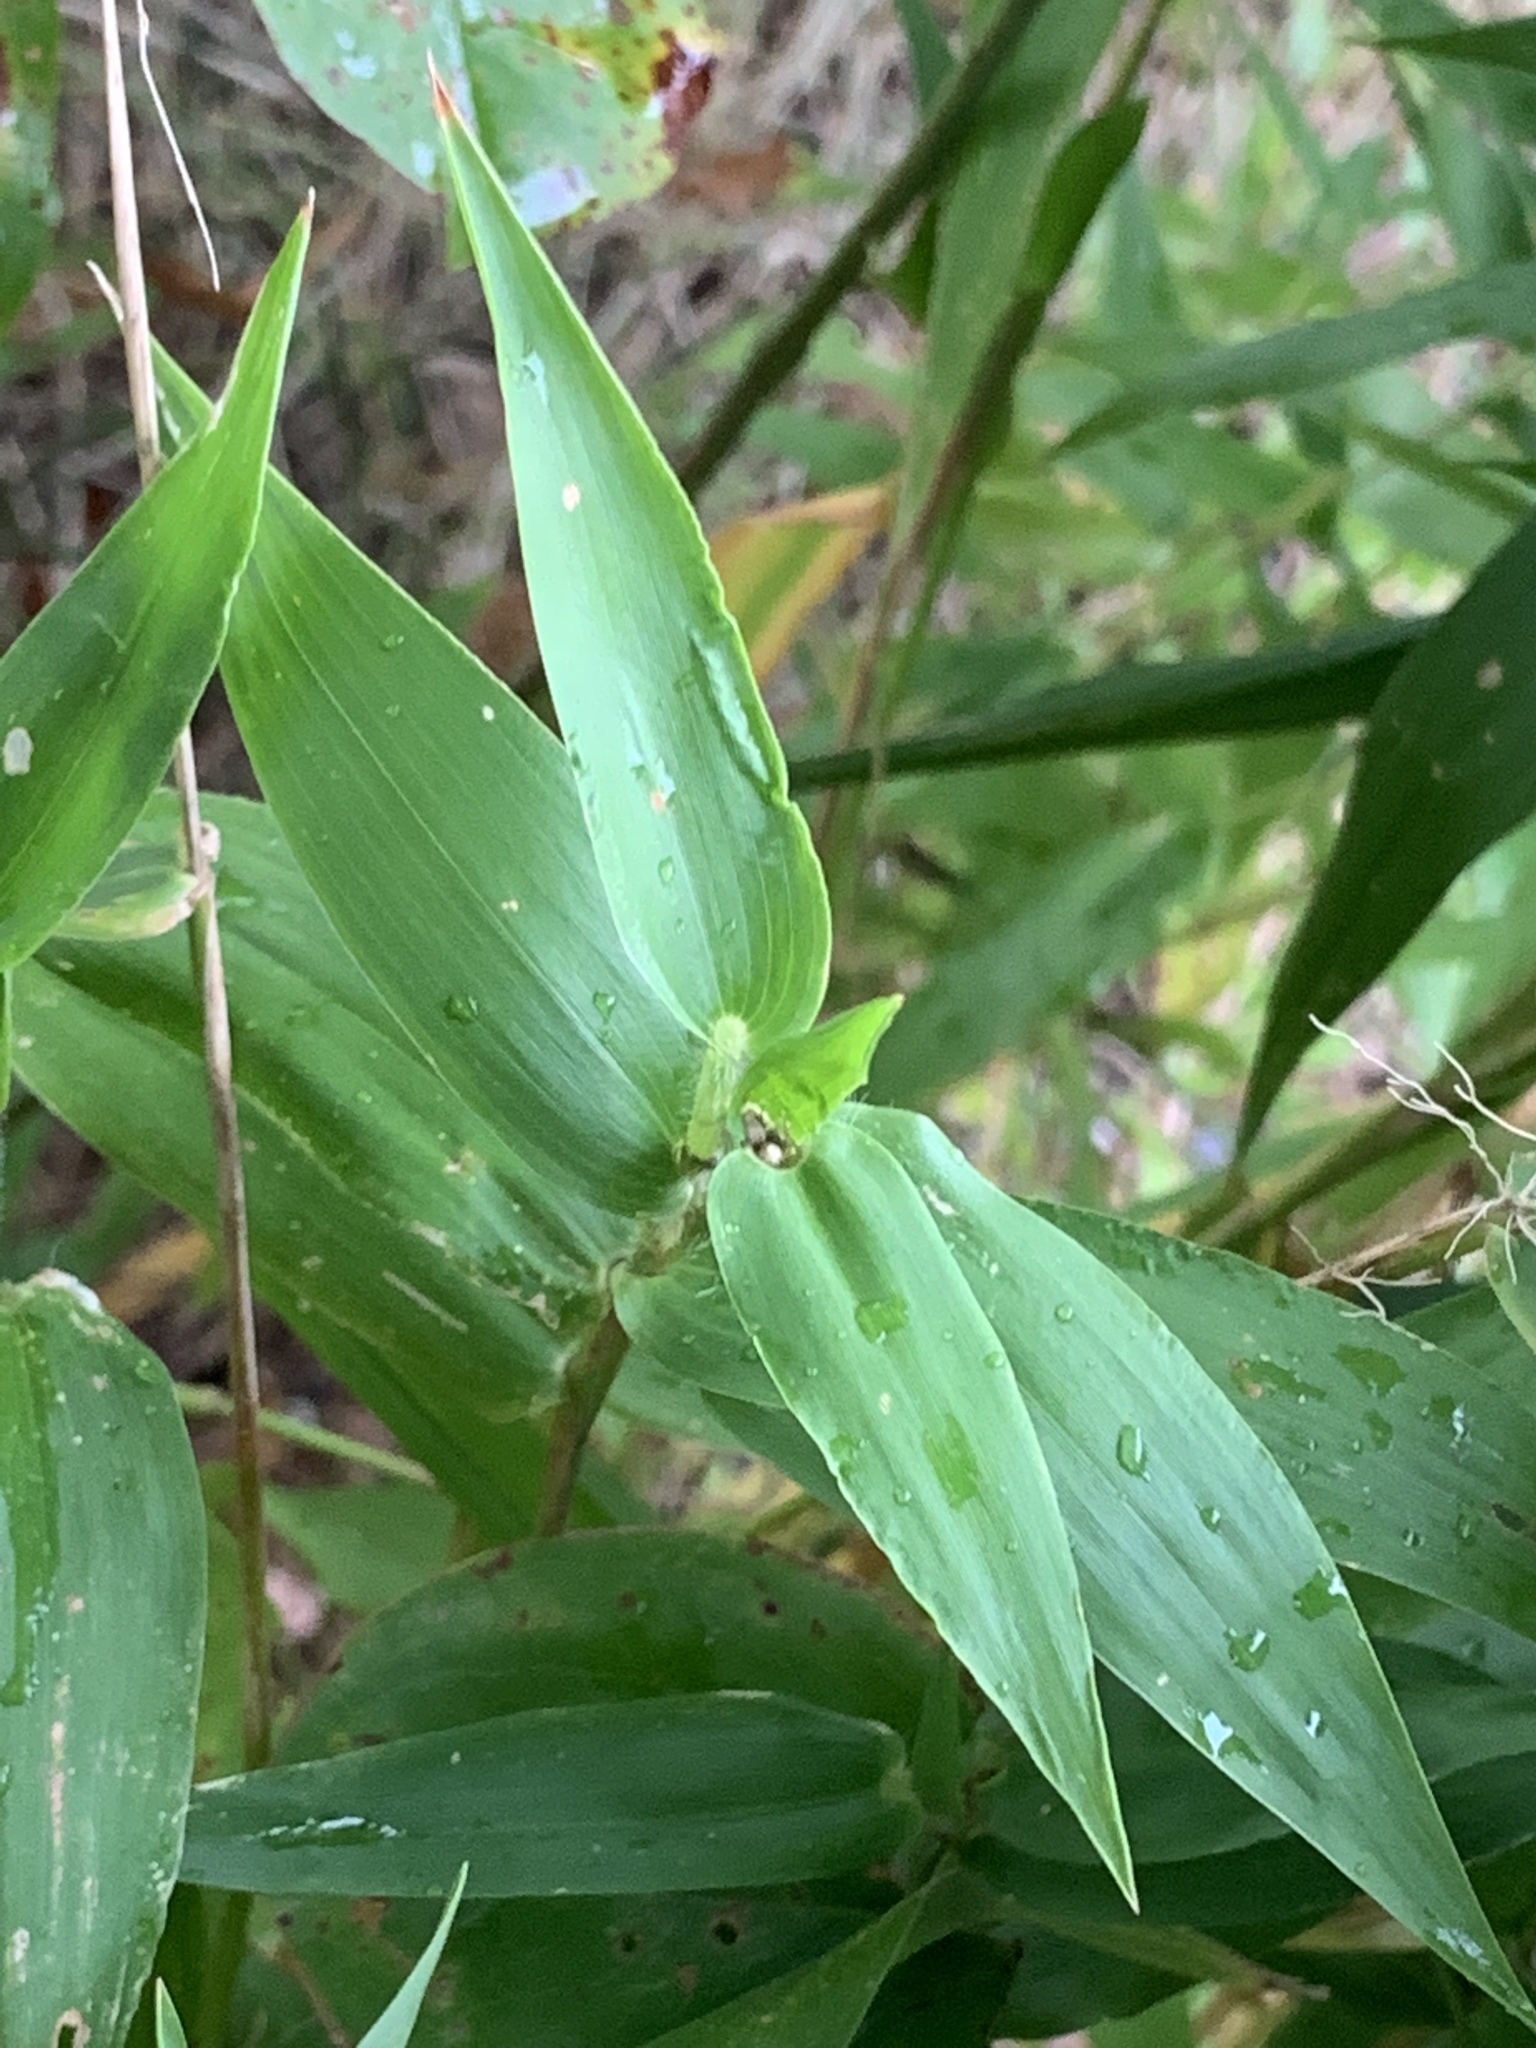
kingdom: Plantae
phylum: Tracheophyta
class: Liliopsida
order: Poales
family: Poaceae
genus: Dichanthelium
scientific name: Dichanthelium clandestinum
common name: Deer-tongue grass
